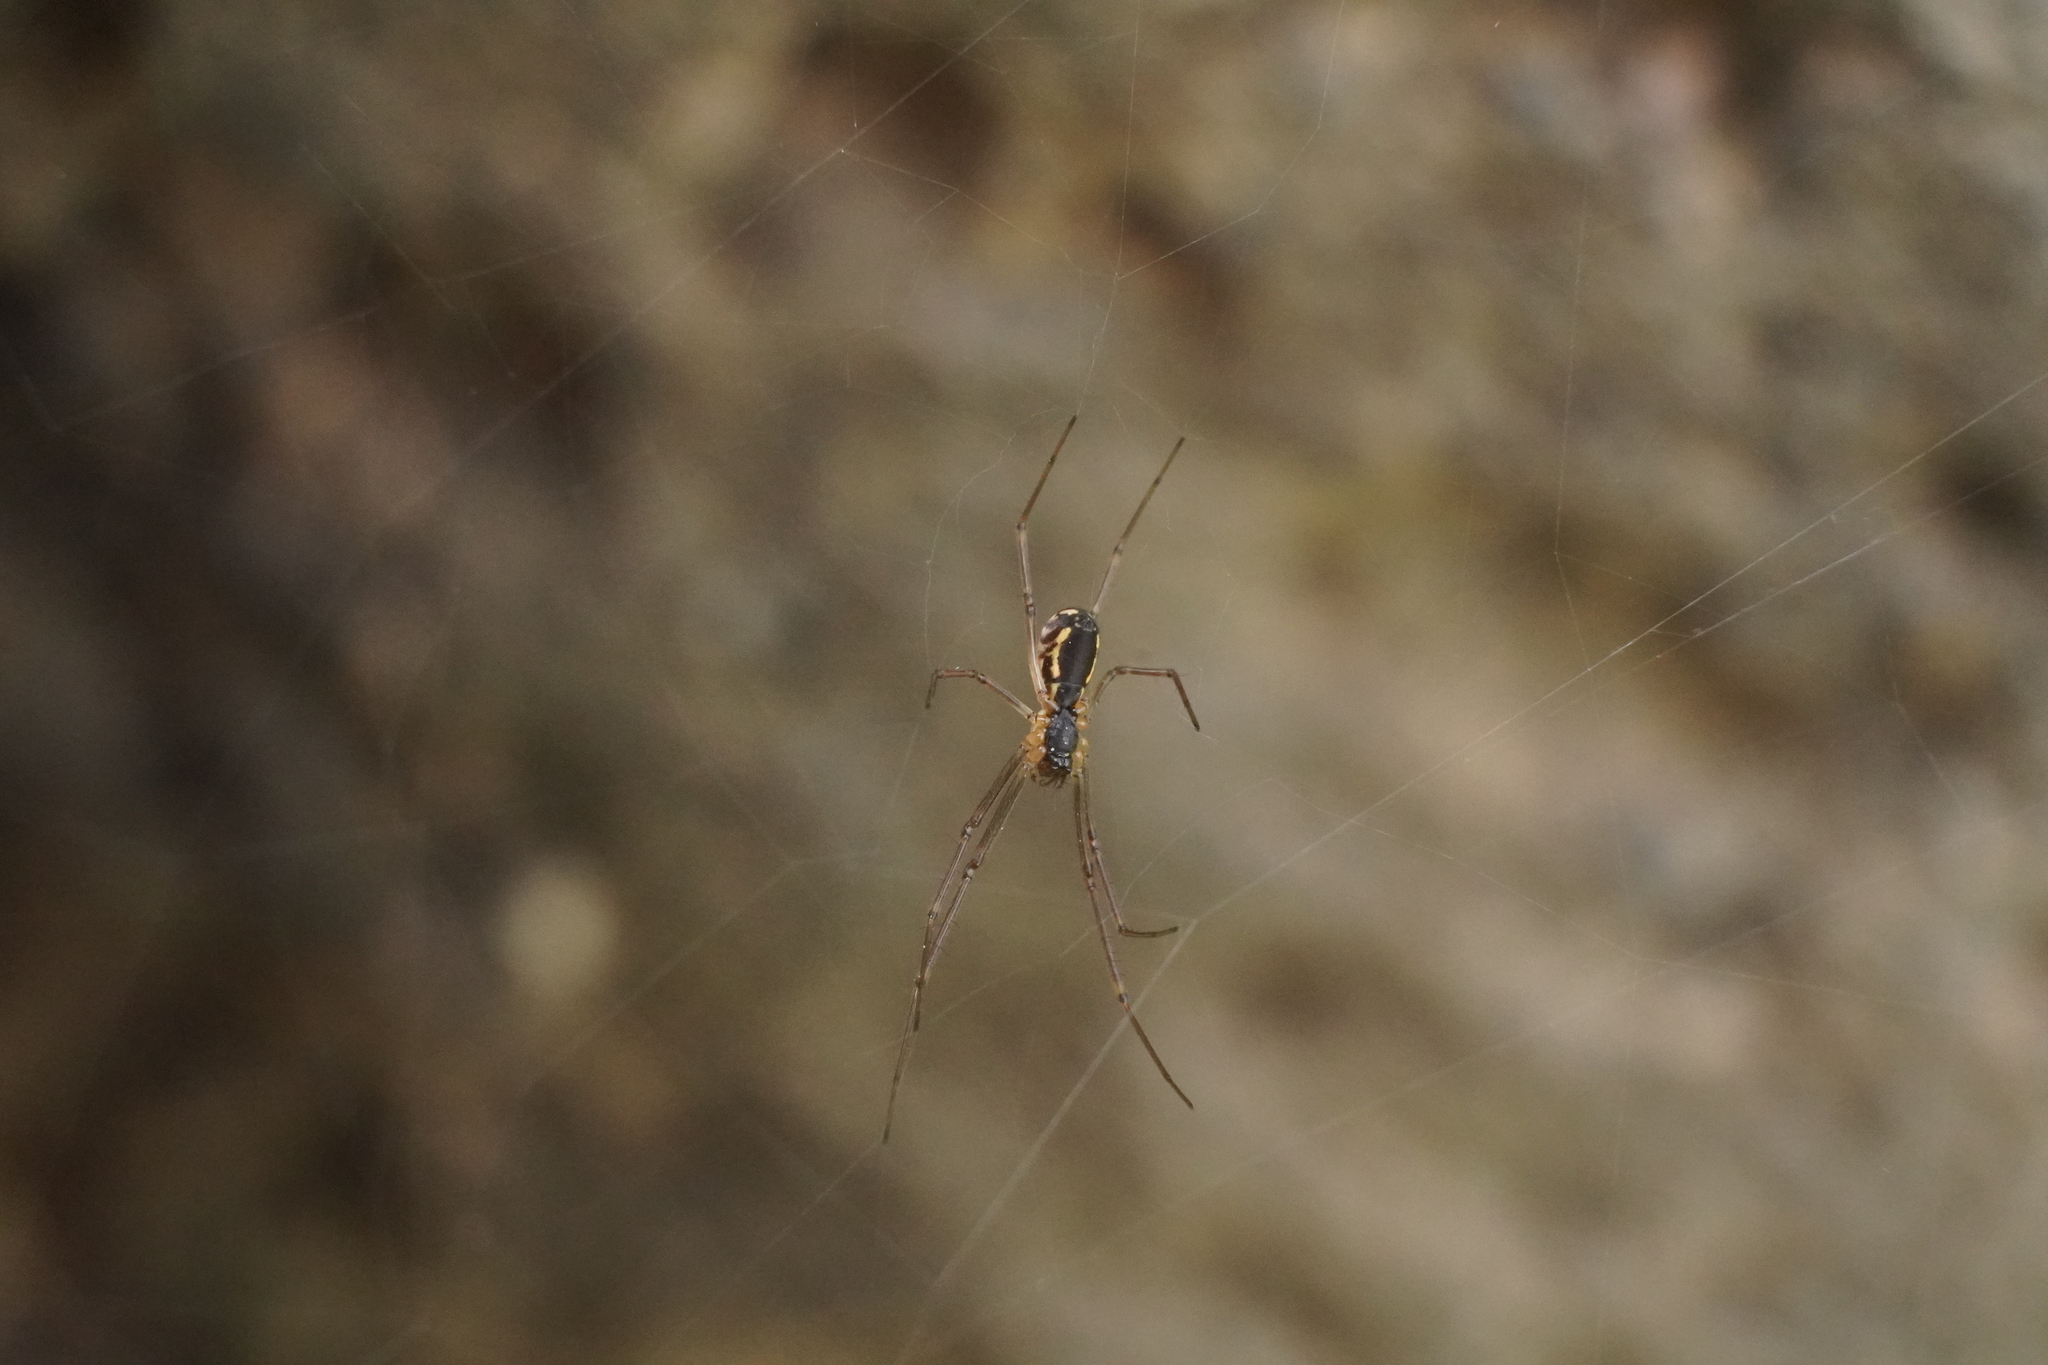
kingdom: Animalia
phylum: Arthropoda
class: Arachnida
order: Araneae
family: Linyphiidae
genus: Neriene
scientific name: Neriene radiata
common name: Filmy dome spider
